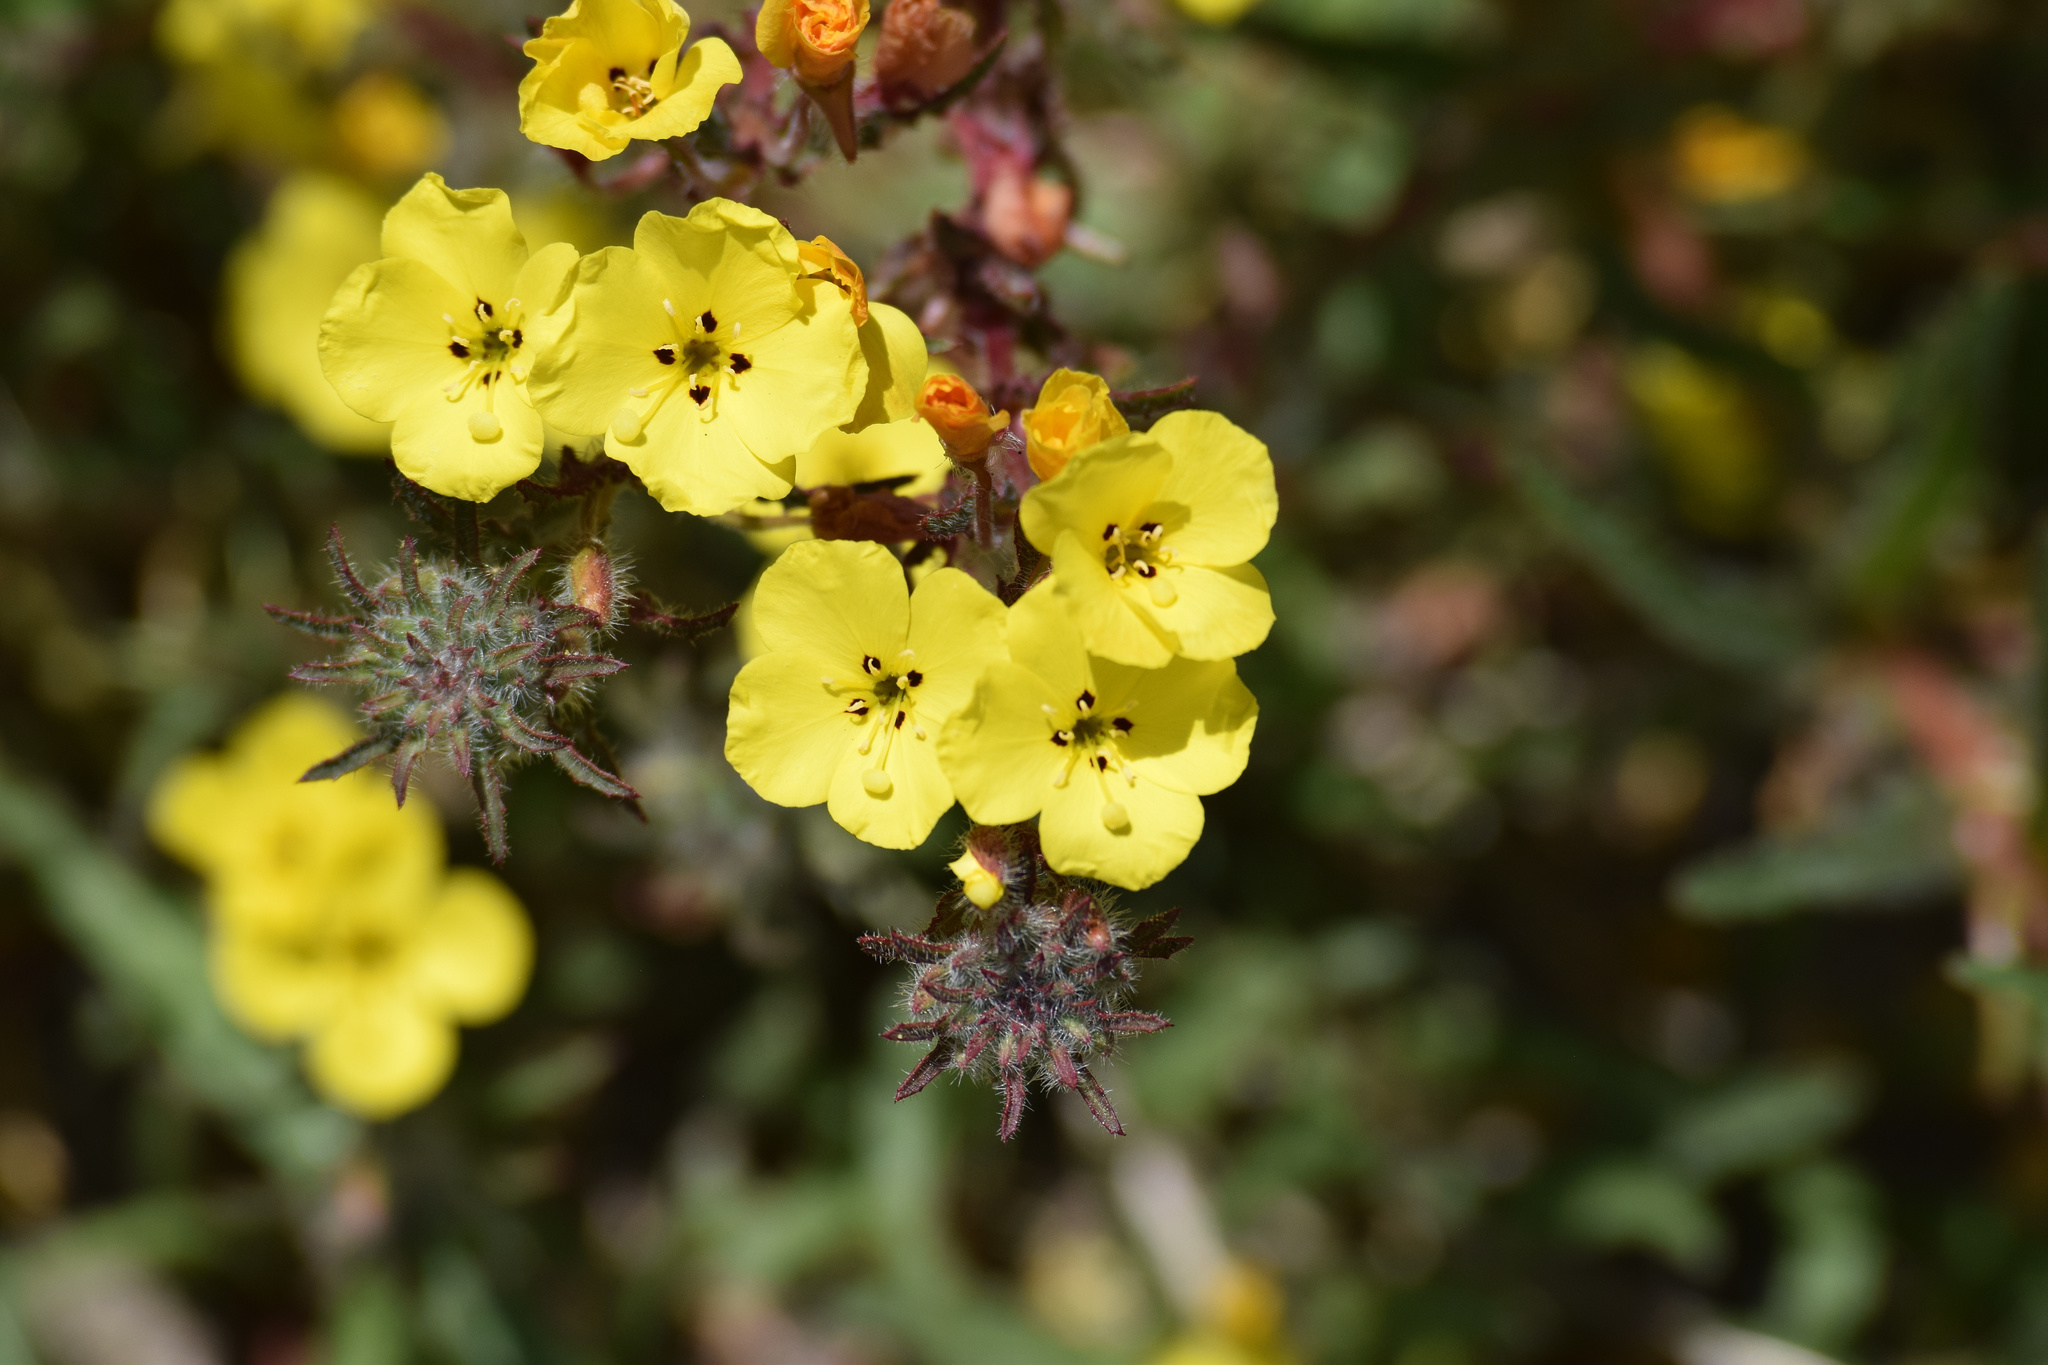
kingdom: Plantae
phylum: Tracheophyta
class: Magnoliopsida
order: Myrtales
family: Onagraceae
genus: Camissoniopsis
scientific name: Camissoniopsis bistorta
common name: Southern suncup
